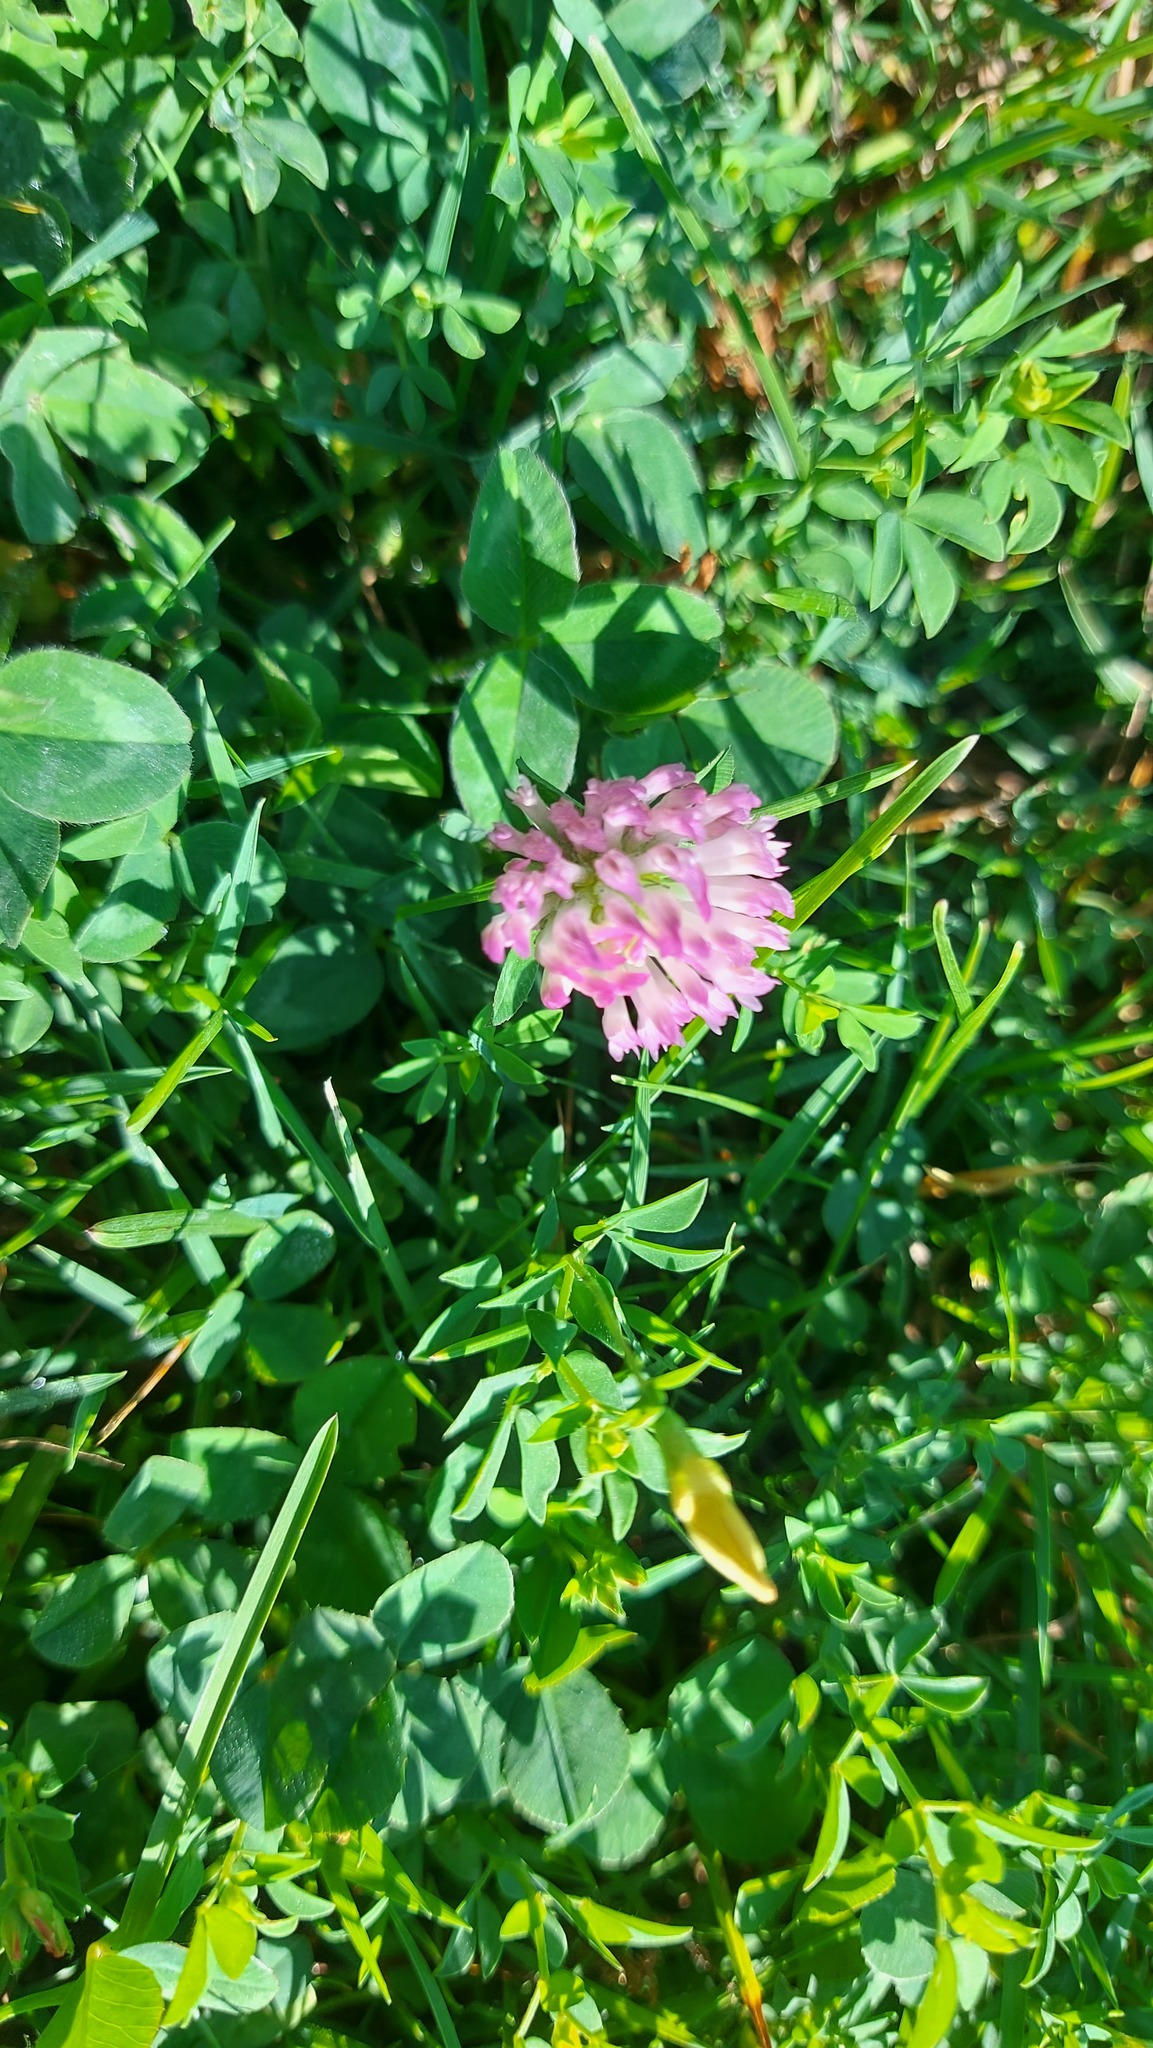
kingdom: Plantae
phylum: Tracheophyta
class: Magnoliopsida
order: Fabales
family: Fabaceae
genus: Trifolium
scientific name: Trifolium pratense
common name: Red clover
